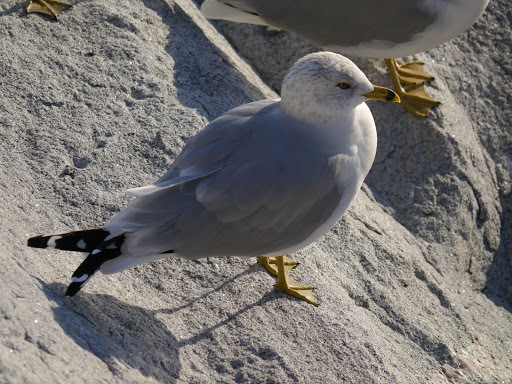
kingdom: Animalia
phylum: Chordata
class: Aves
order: Charadriiformes
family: Laridae
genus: Larus
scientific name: Larus delawarensis
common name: Ring-billed gull
